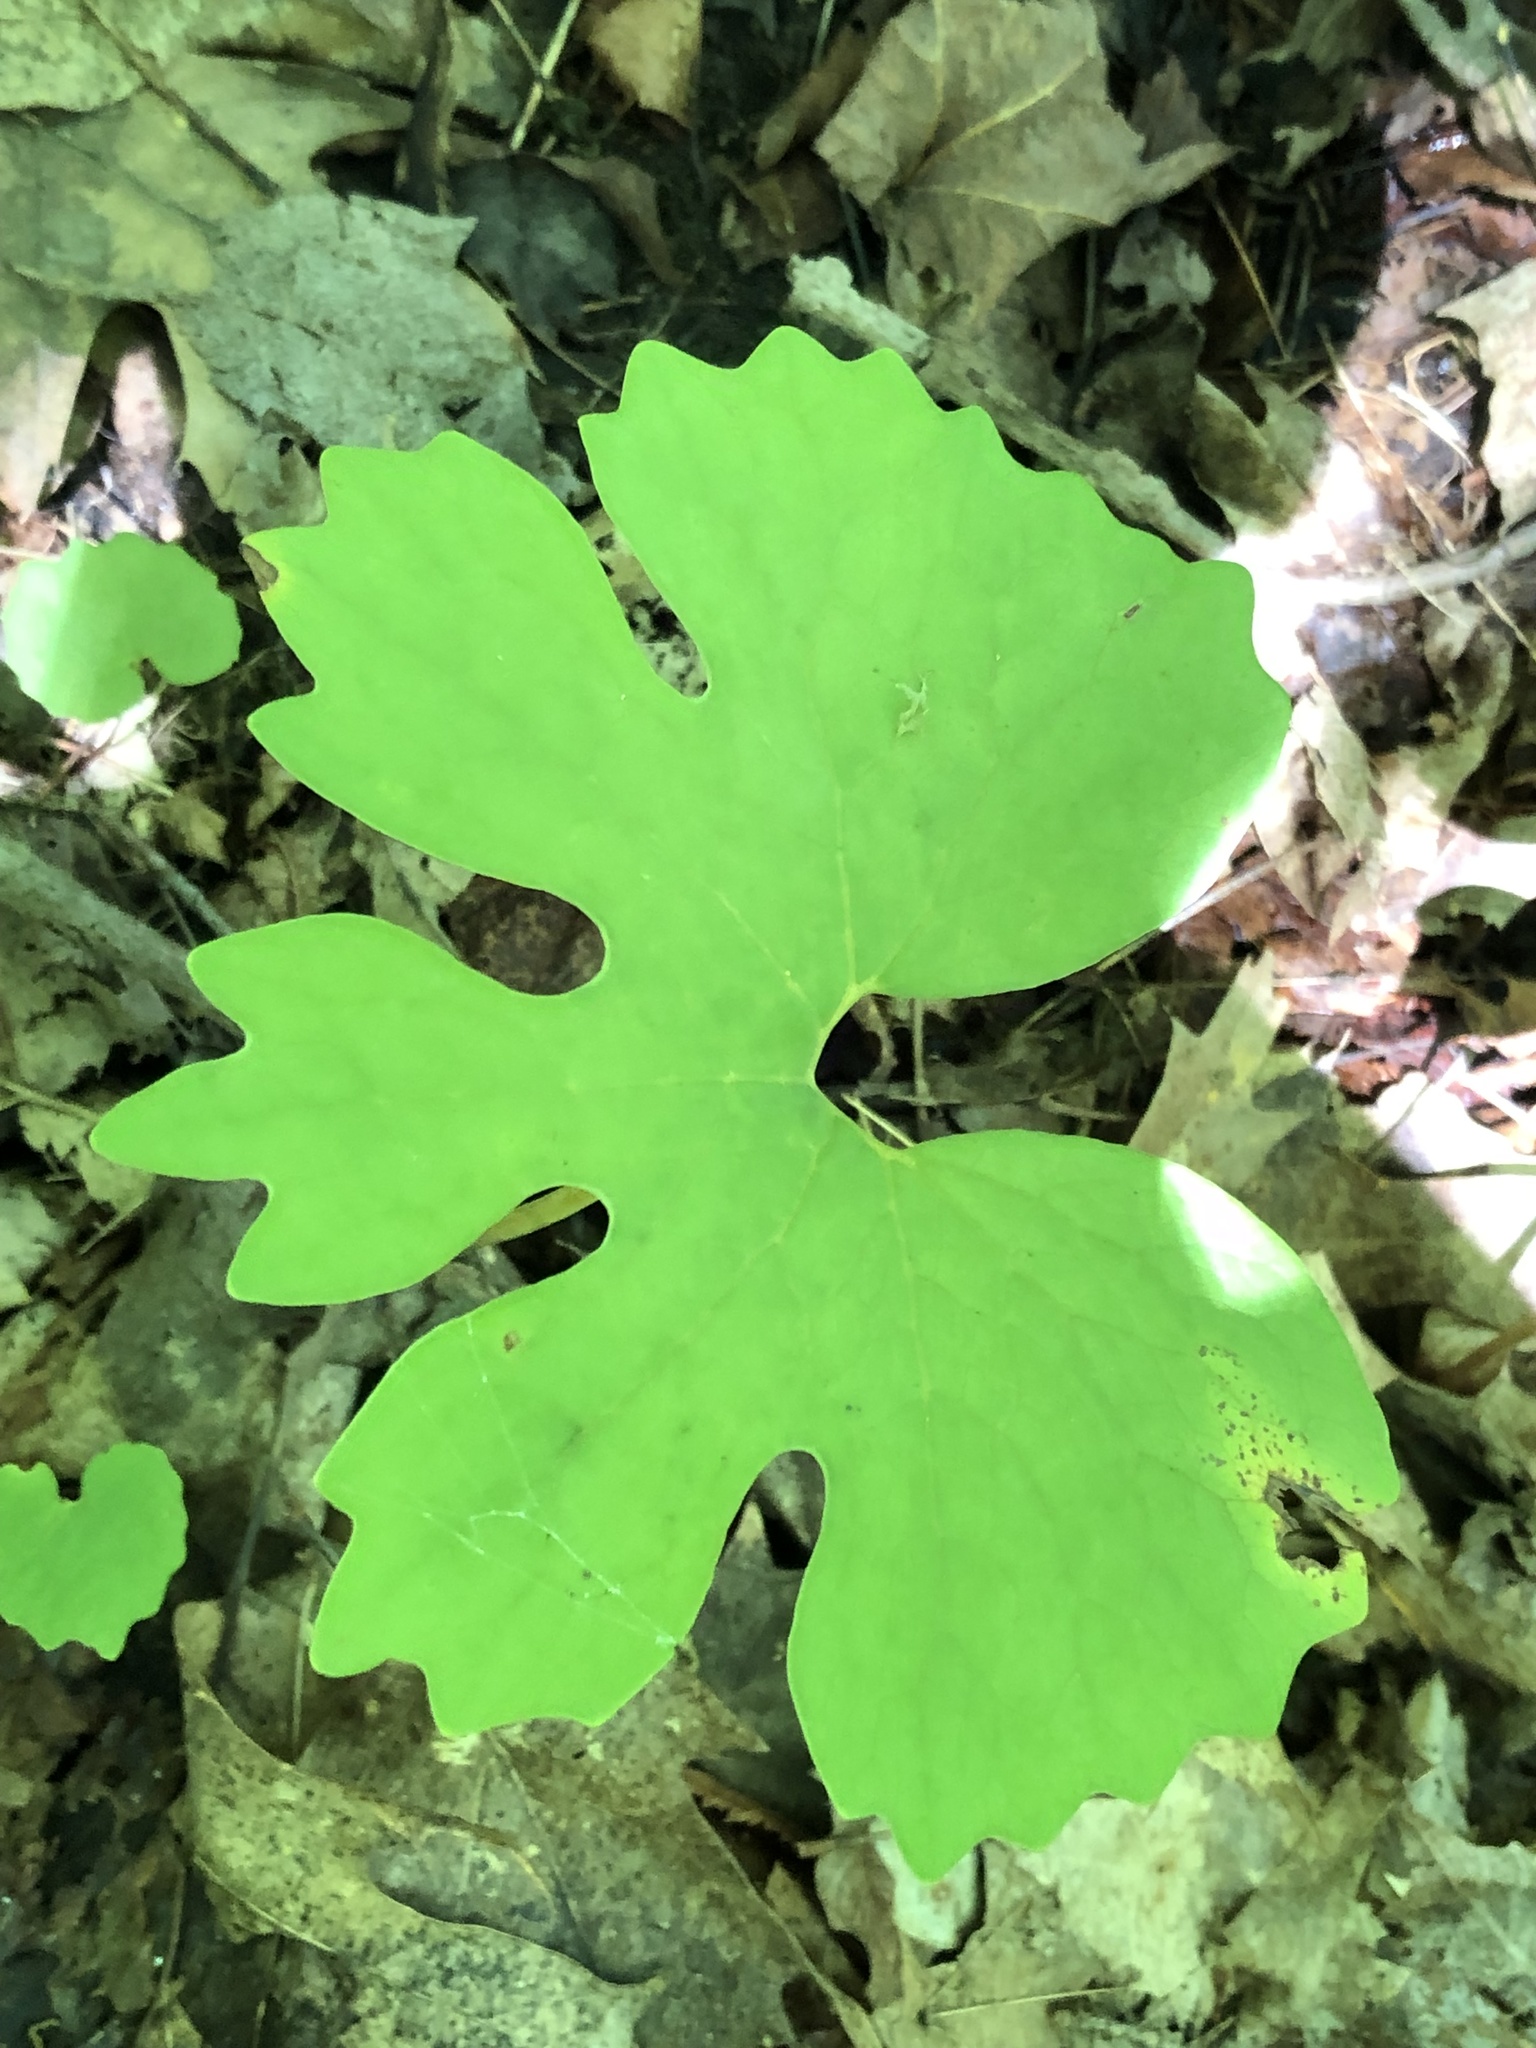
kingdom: Plantae
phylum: Tracheophyta
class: Magnoliopsida
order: Ranunculales
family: Papaveraceae
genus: Sanguinaria
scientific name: Sanguinaria canadensis
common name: Bloodroot
